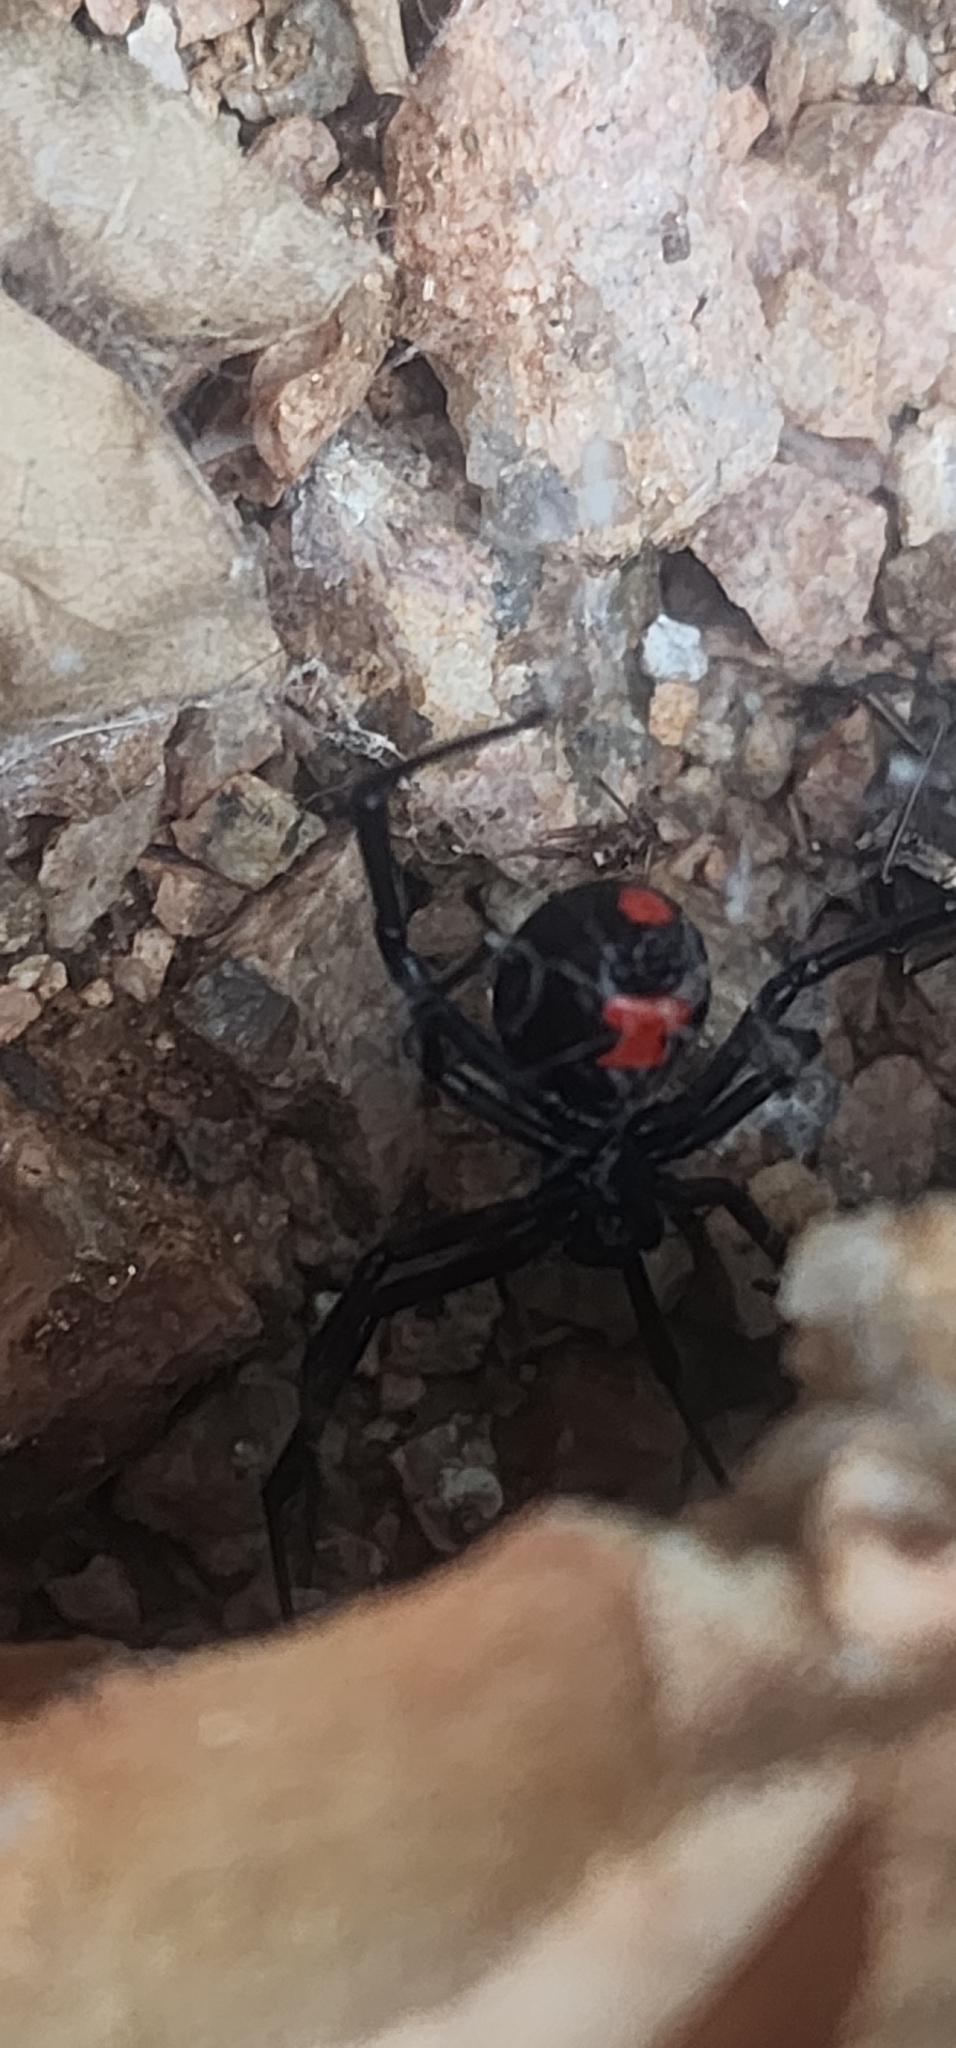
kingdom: Animalia
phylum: Arthropoda
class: Arachnida
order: Araneae
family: Theridiidae
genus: Latrodectus
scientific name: Latrodectus mactans
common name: Cobweb spiders
